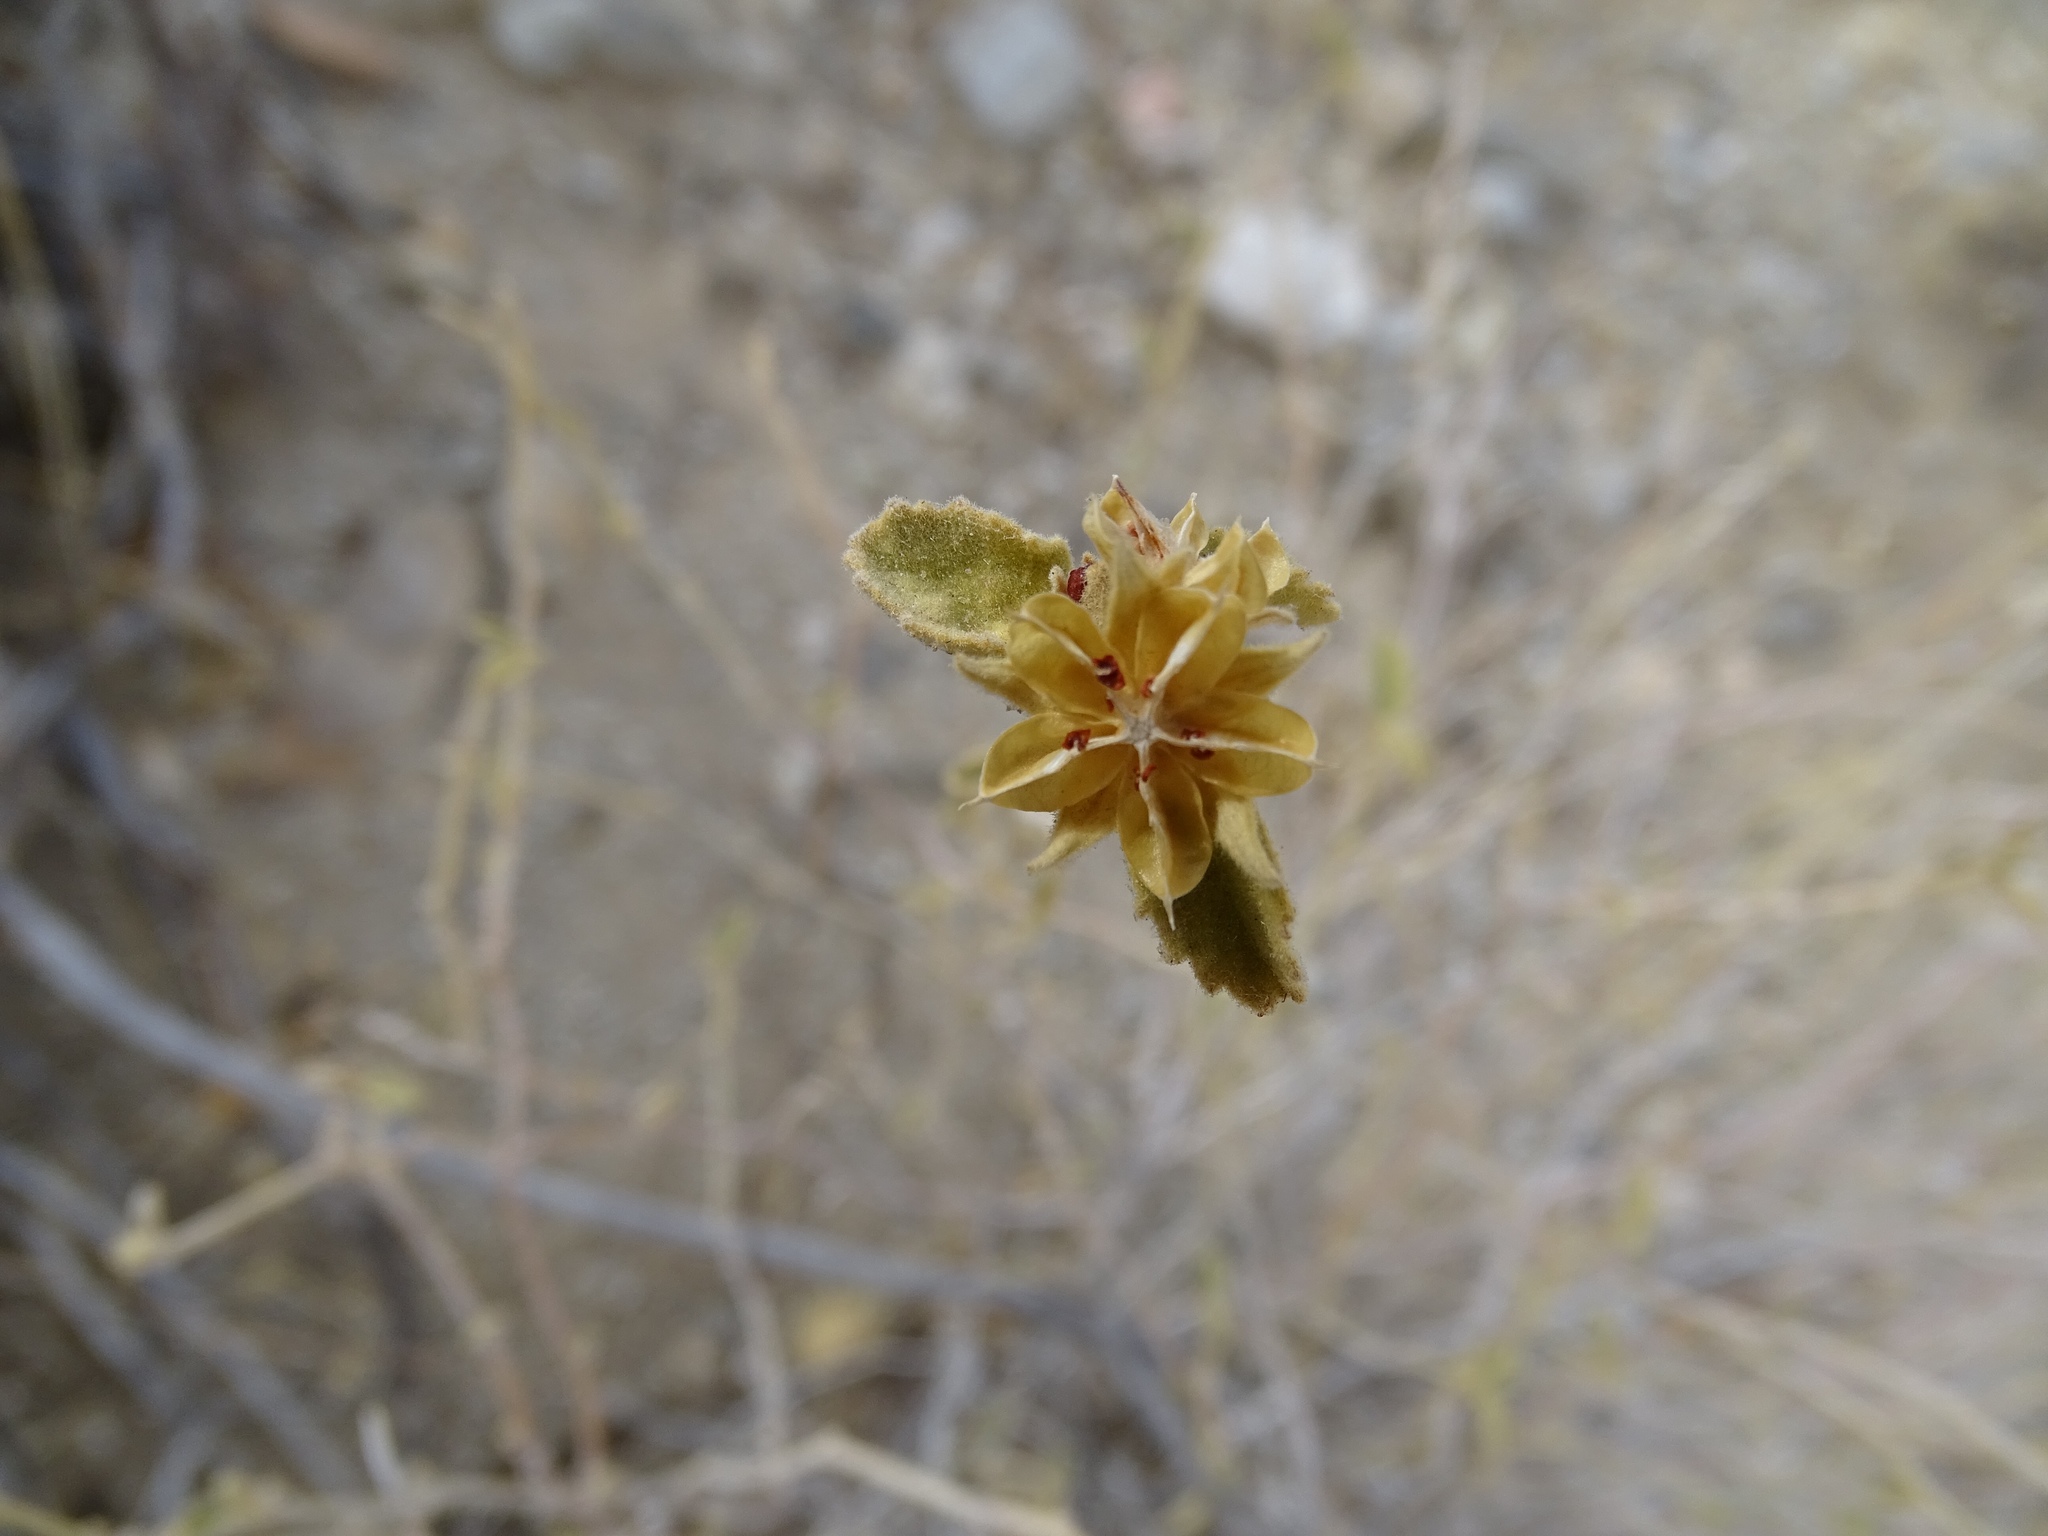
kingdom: Plantae
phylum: Tracheophyta
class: Magnoliopsida
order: Malvales
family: Malvaceae
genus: Hibiscus
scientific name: Hibiscus denudatus
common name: Paleface
